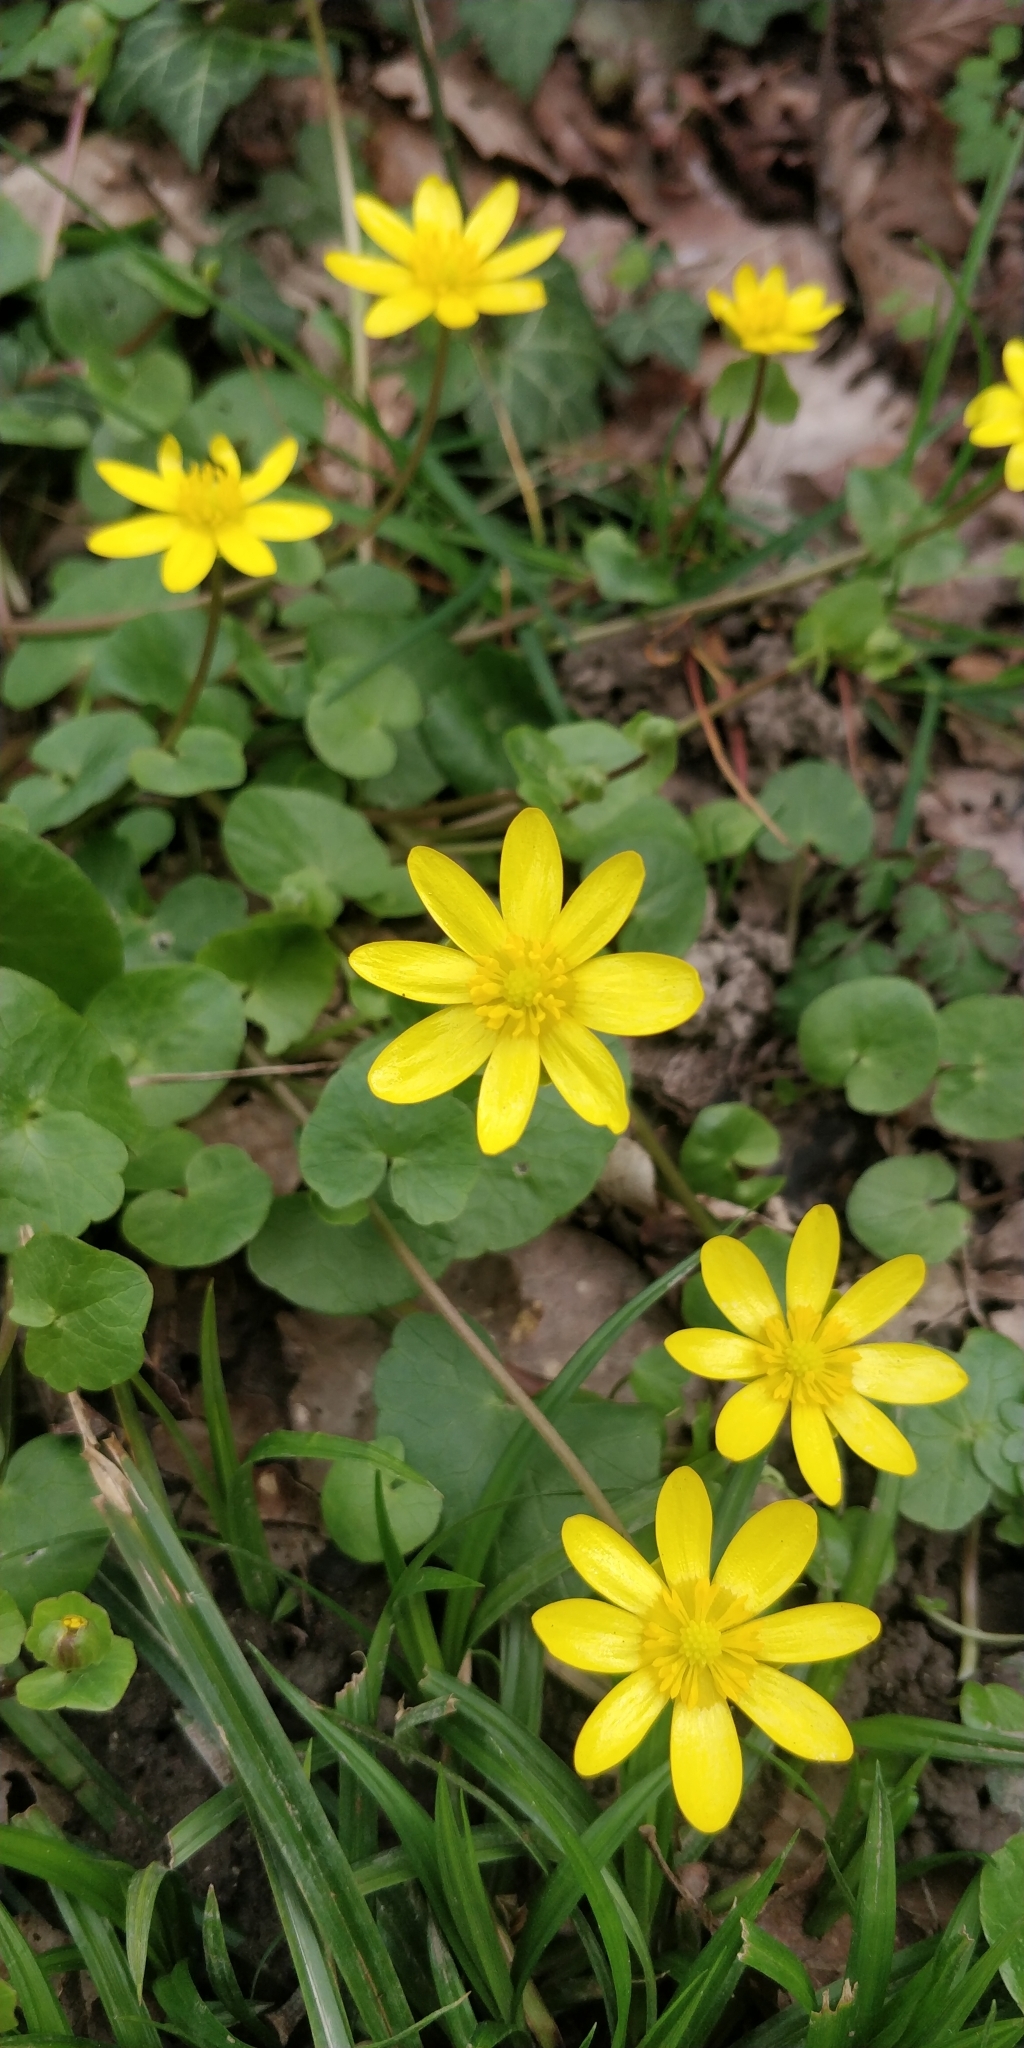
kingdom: Plantae
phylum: Tracheophyta
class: Magnoliopsida
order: Ranunculales
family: Ranunculaceae
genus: Ficaria
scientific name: Ficaria verna
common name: Lesser celandine
